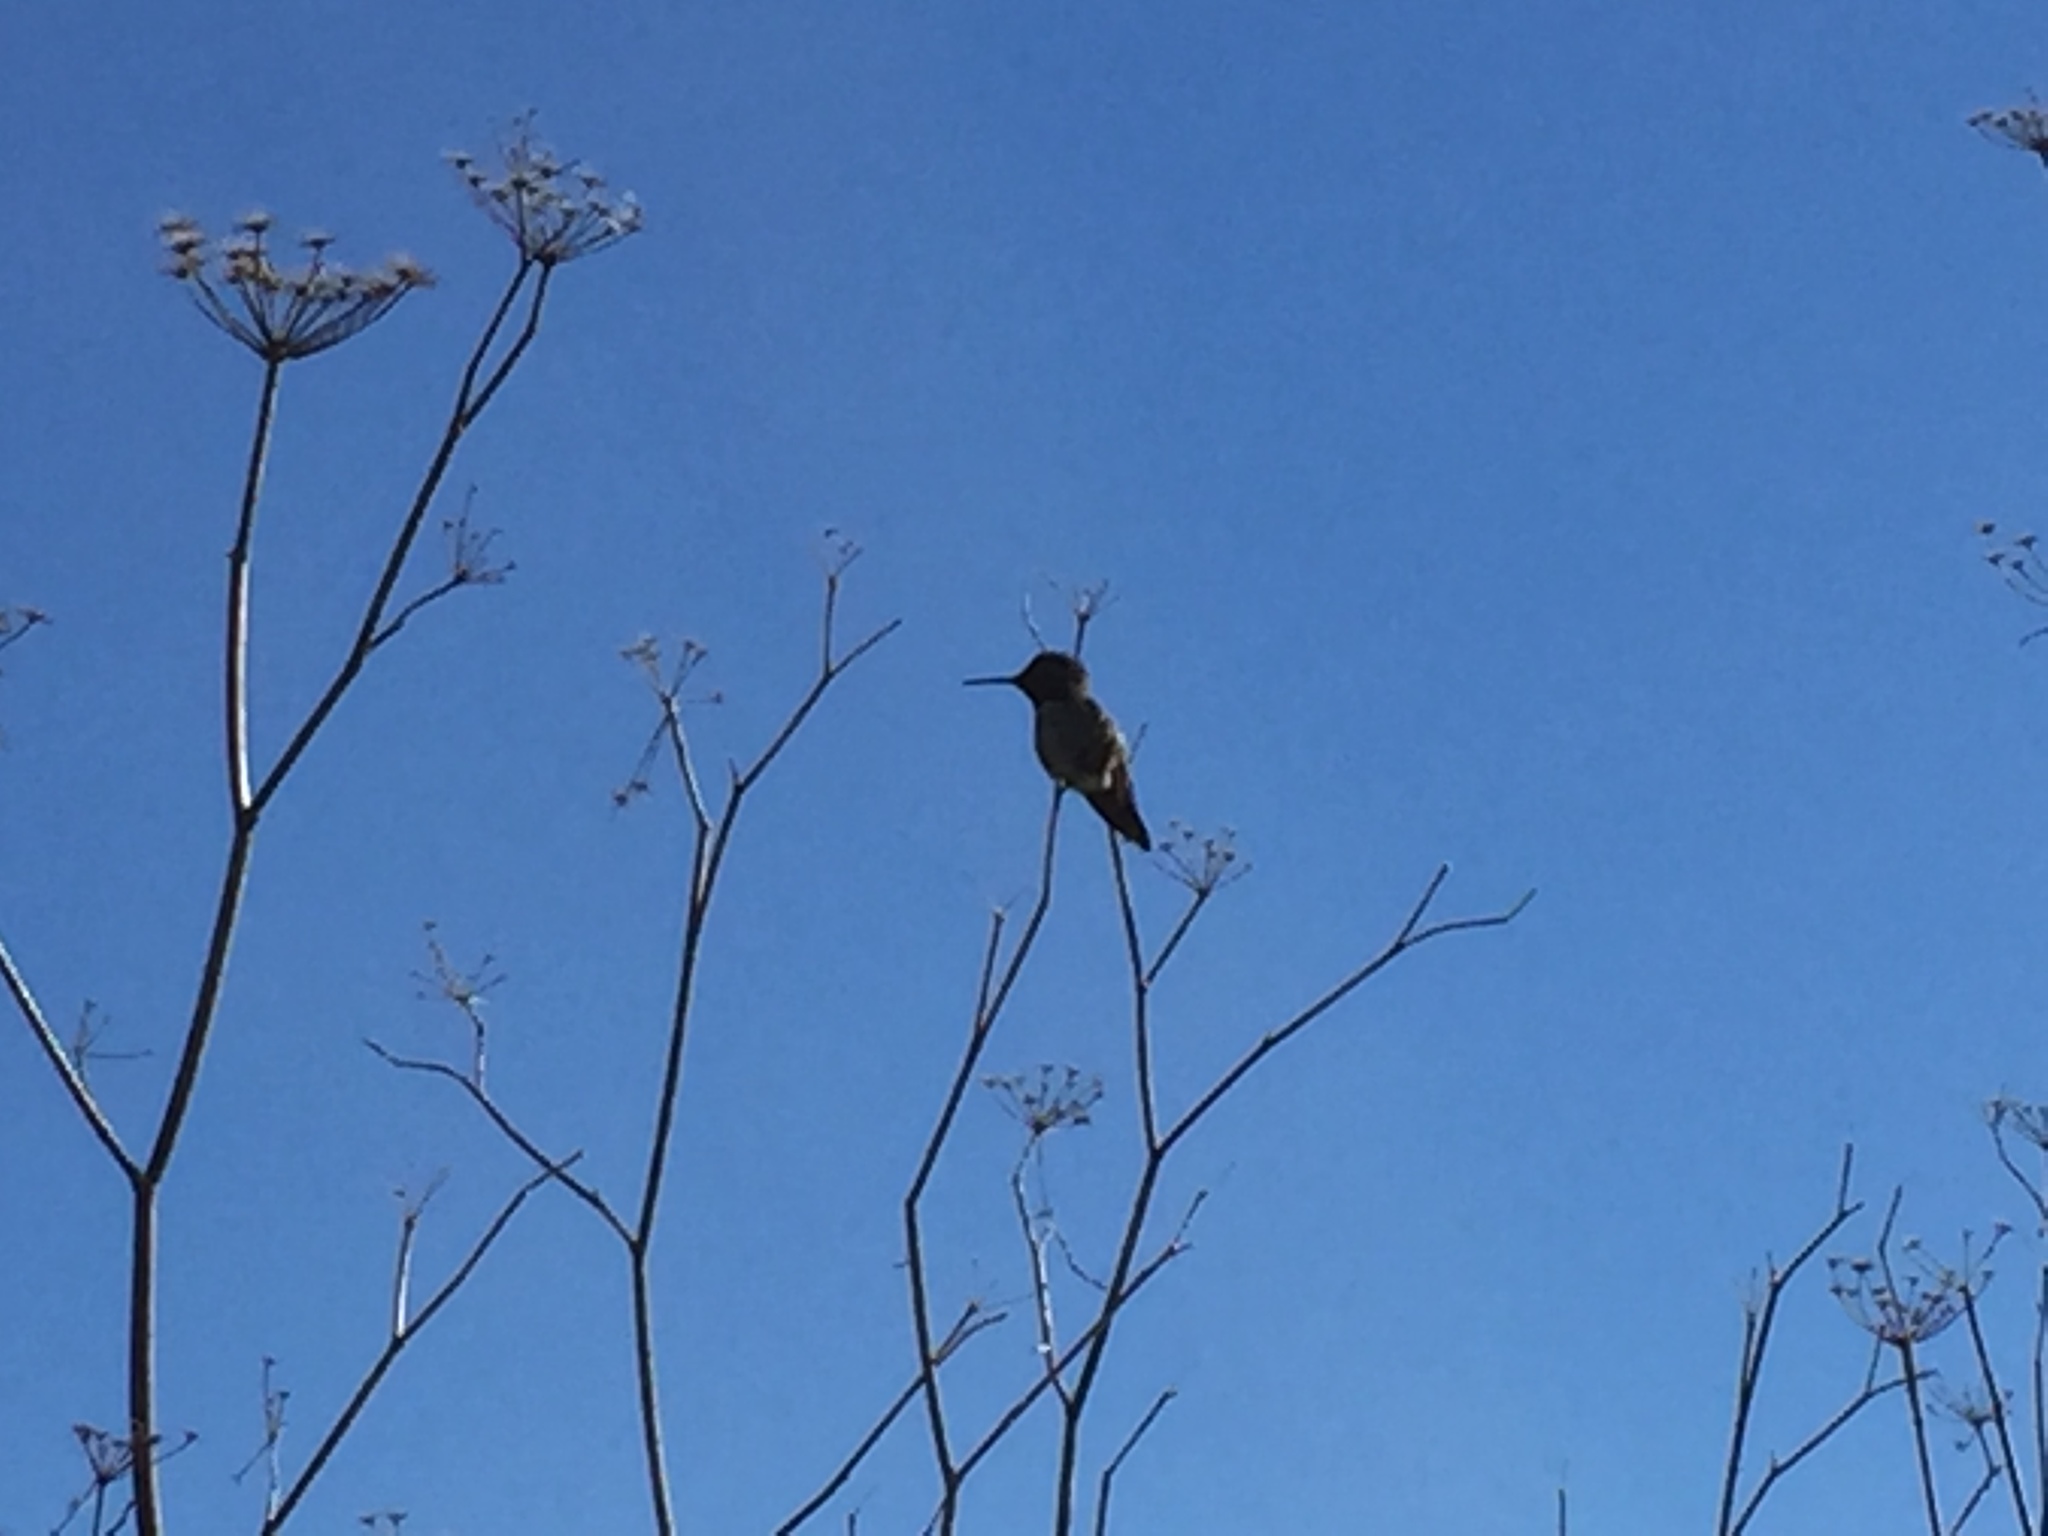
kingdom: Animalia
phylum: Chordata
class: Aves
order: Apodiformes
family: Trochilidae
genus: Calypte
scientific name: Calypte anna
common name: Anna's hummingbird
